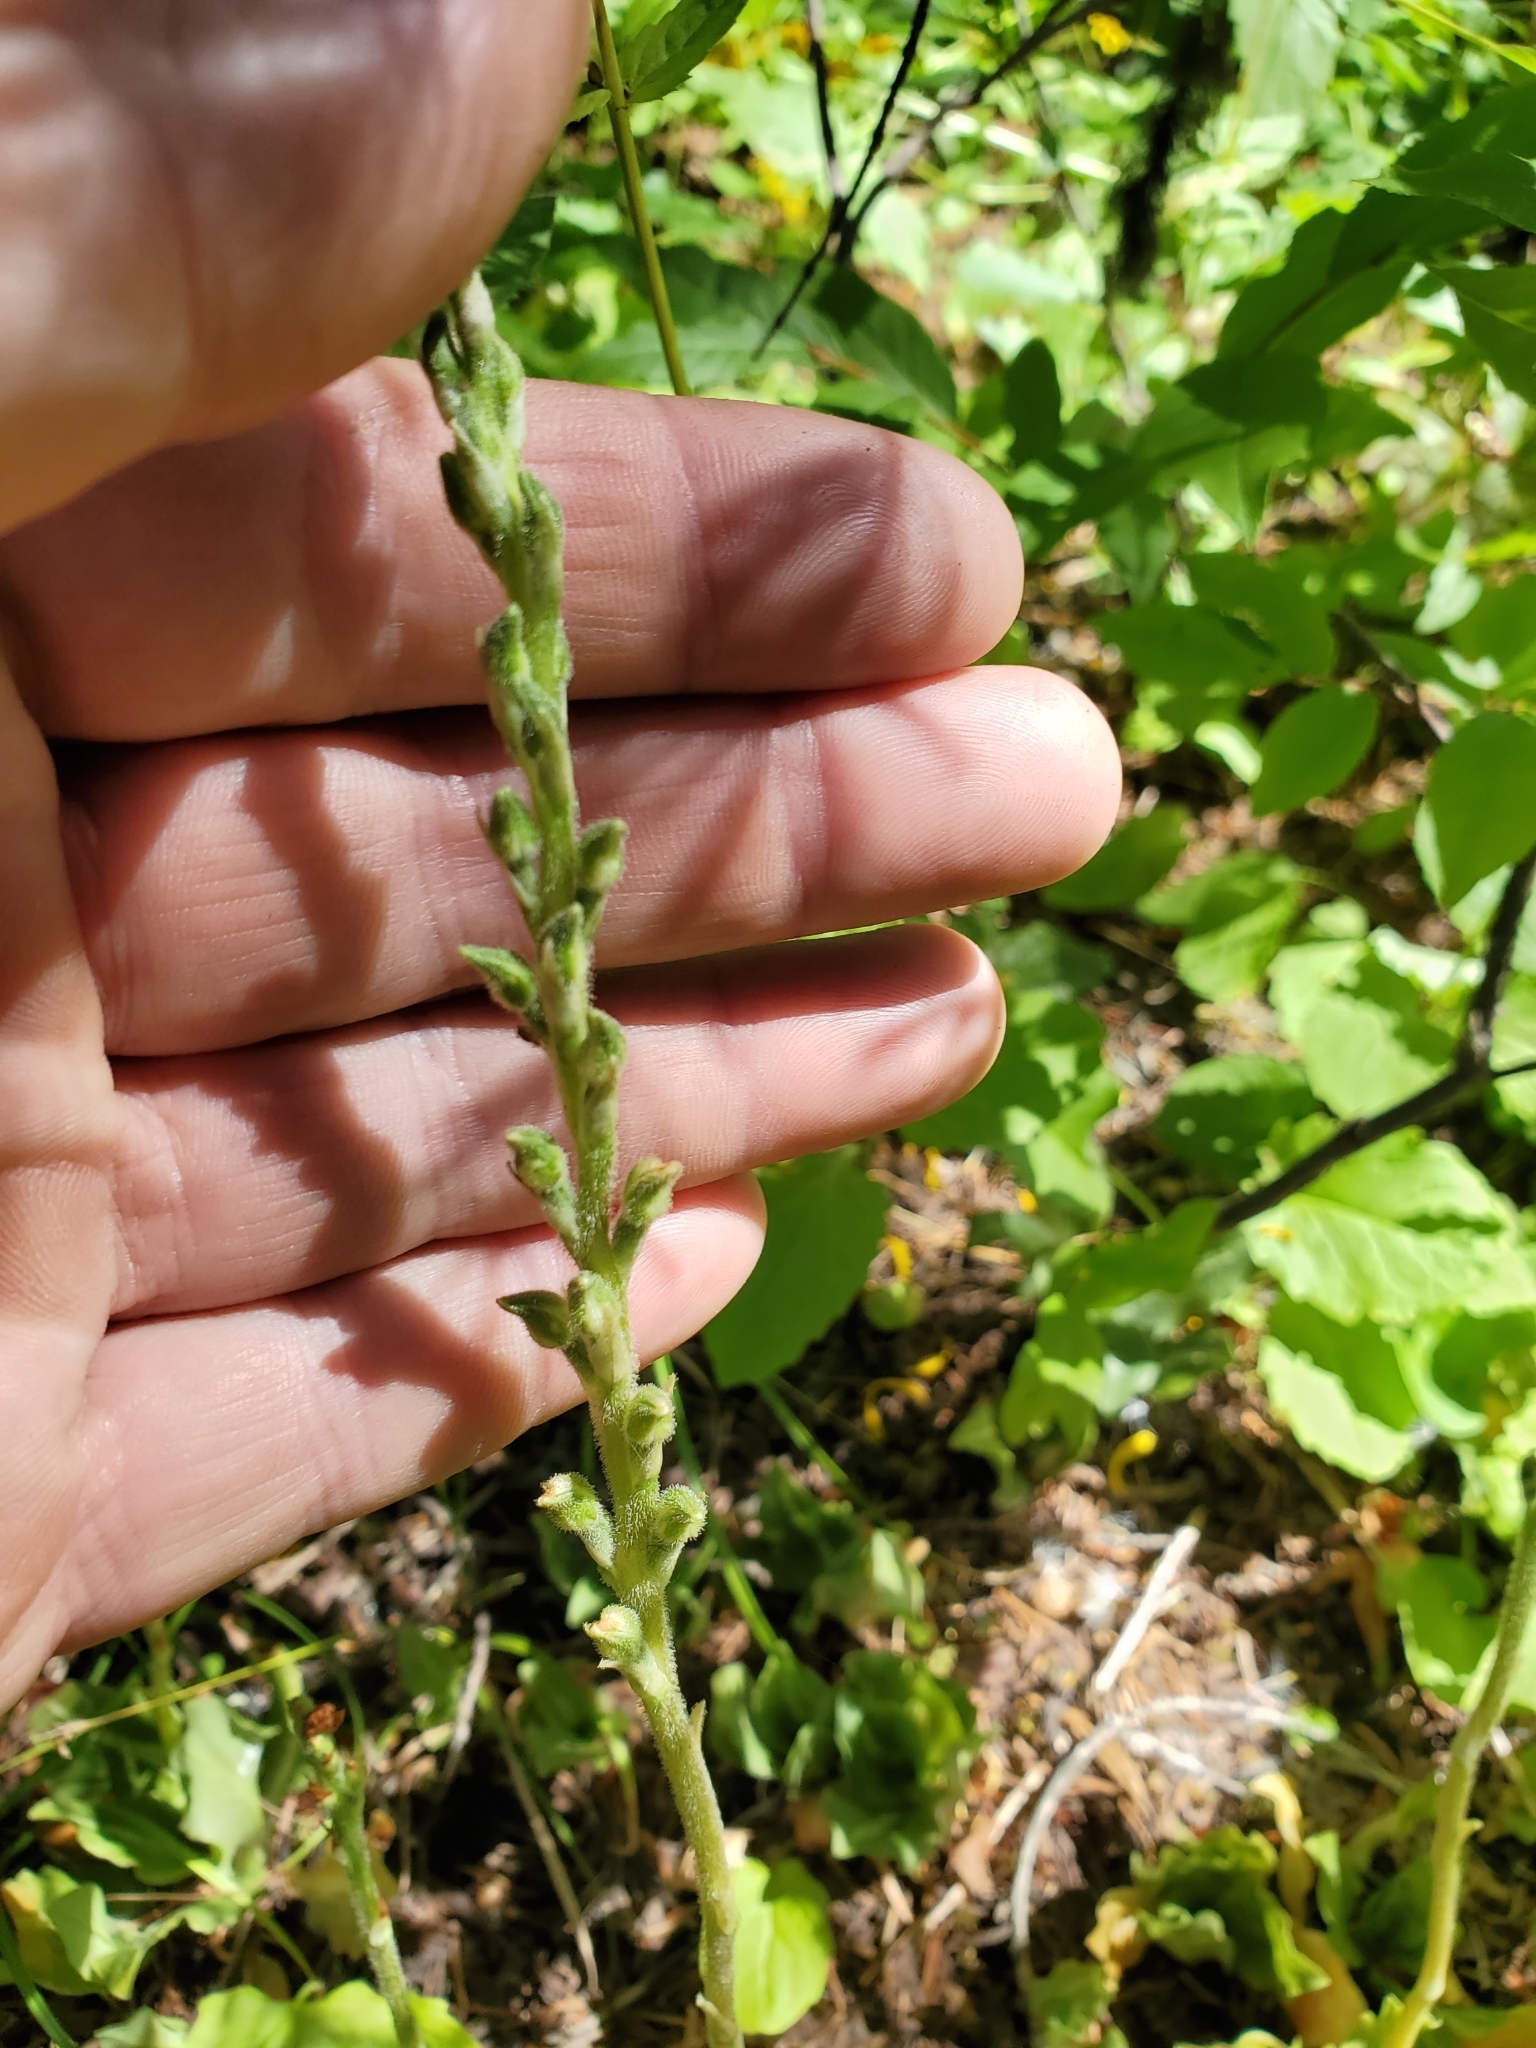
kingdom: Plantae
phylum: Tracheophyta
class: Liliopsida
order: Asparagales
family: Orchidaceae
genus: Goodyera
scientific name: Goodyera oblongifolia
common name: Giant rattlesnake-plantain
